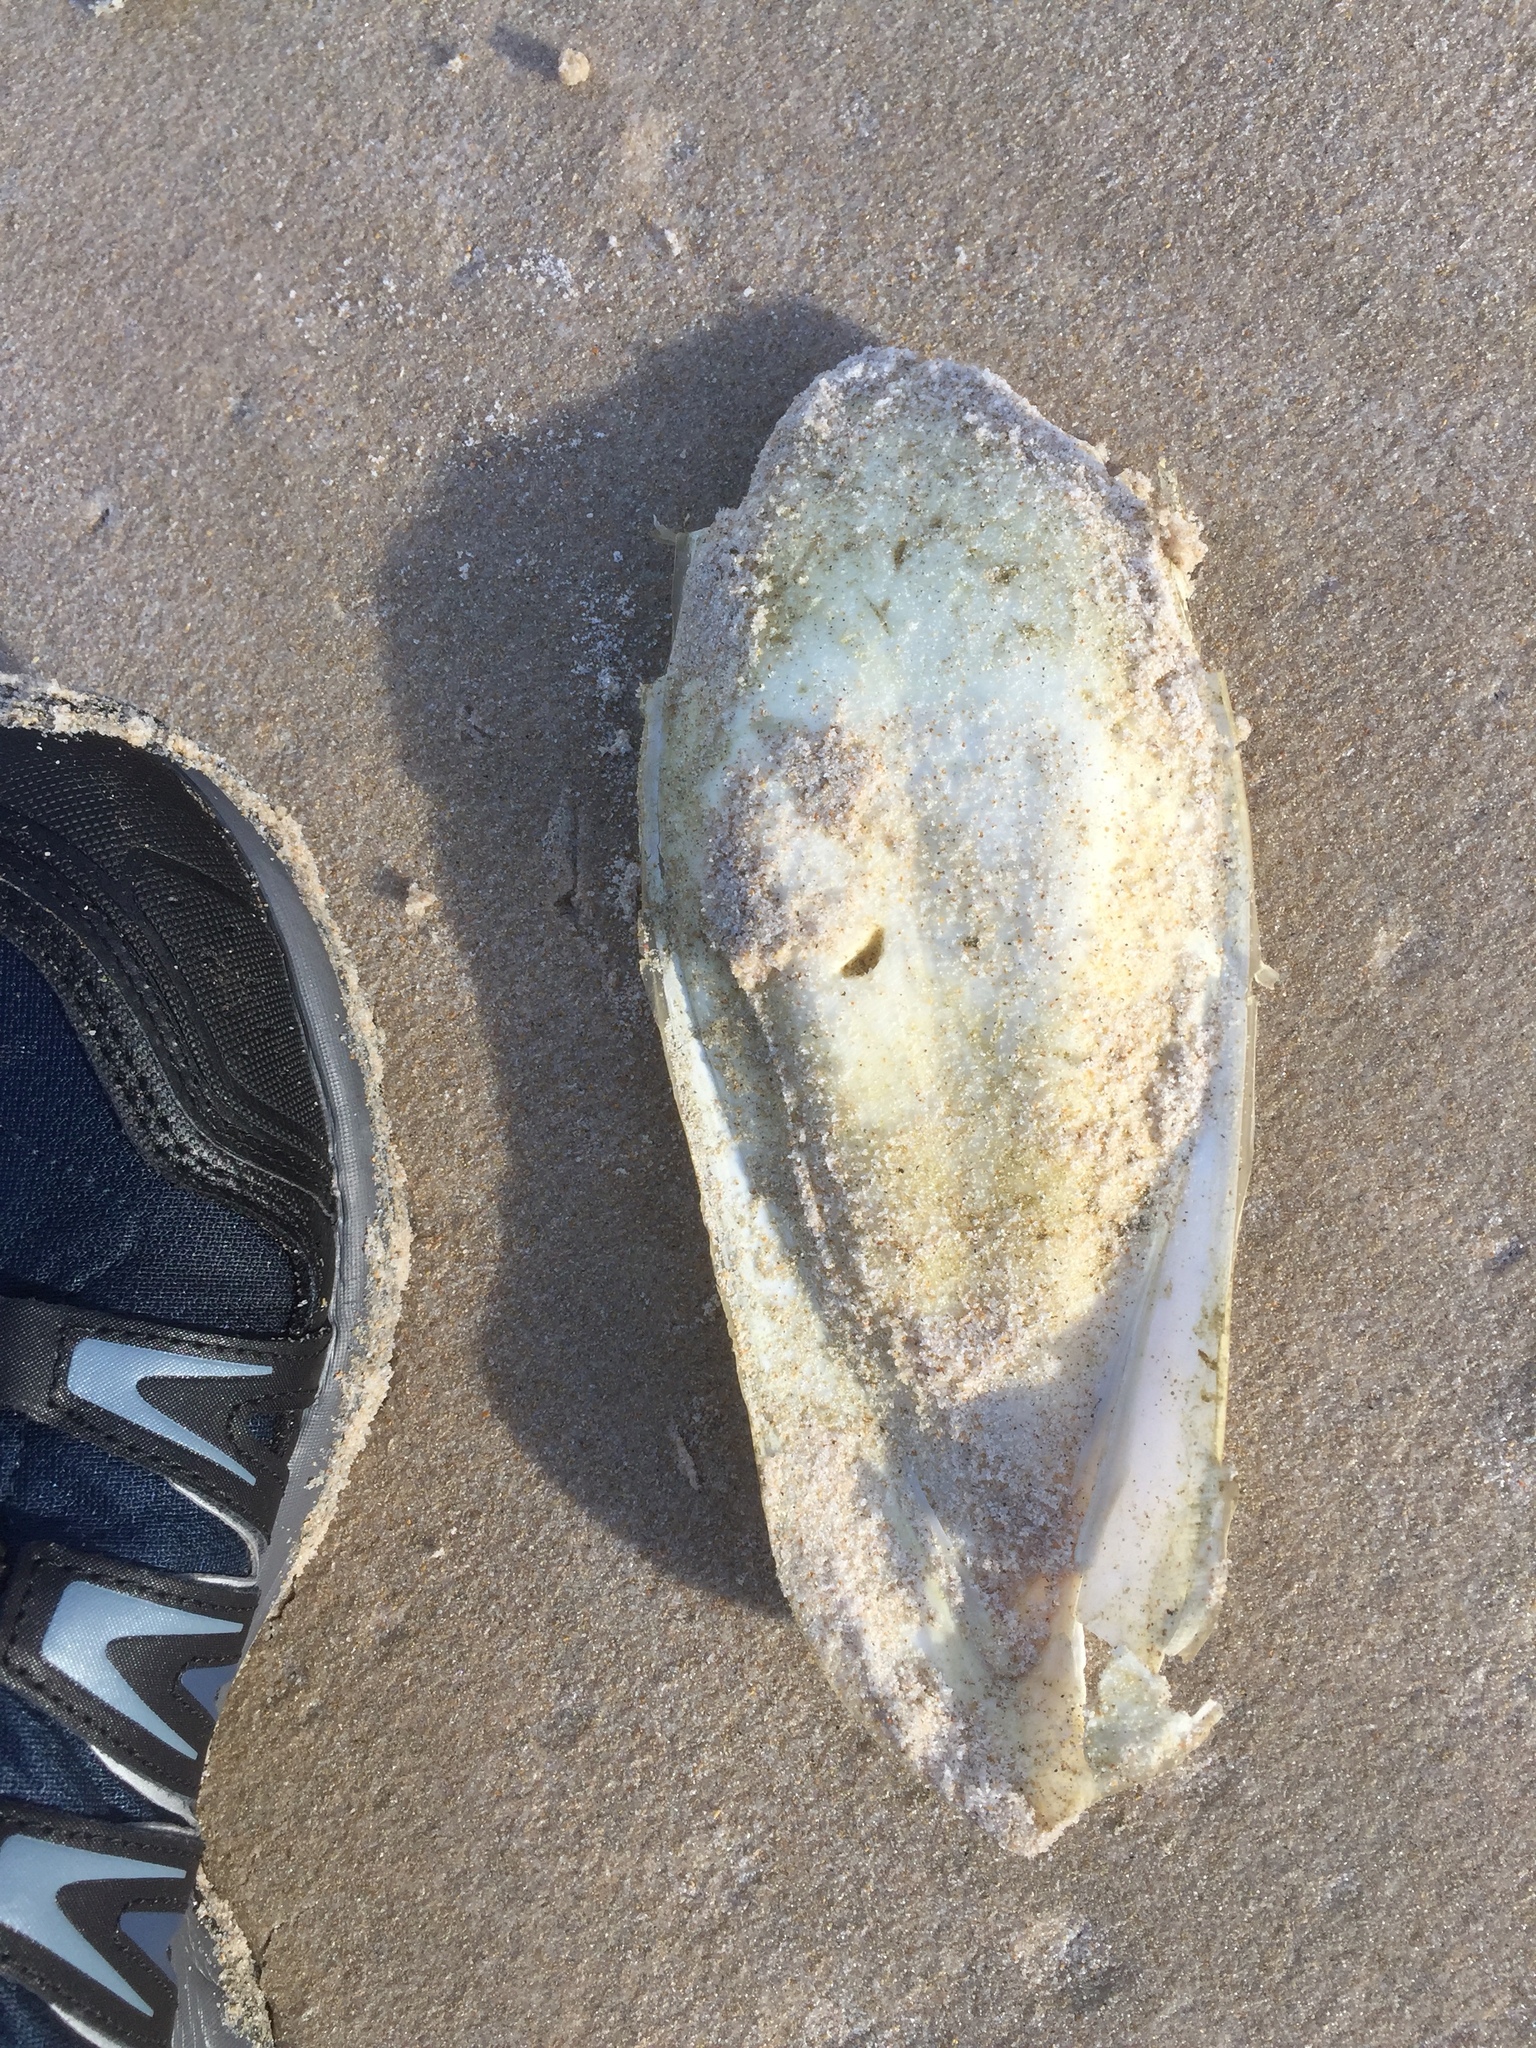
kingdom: Animalia
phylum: Mollusca
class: Cephalopoda
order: Sepiida
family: Sepiidae
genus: Ascarosepion
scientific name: Ascarosepion apama
